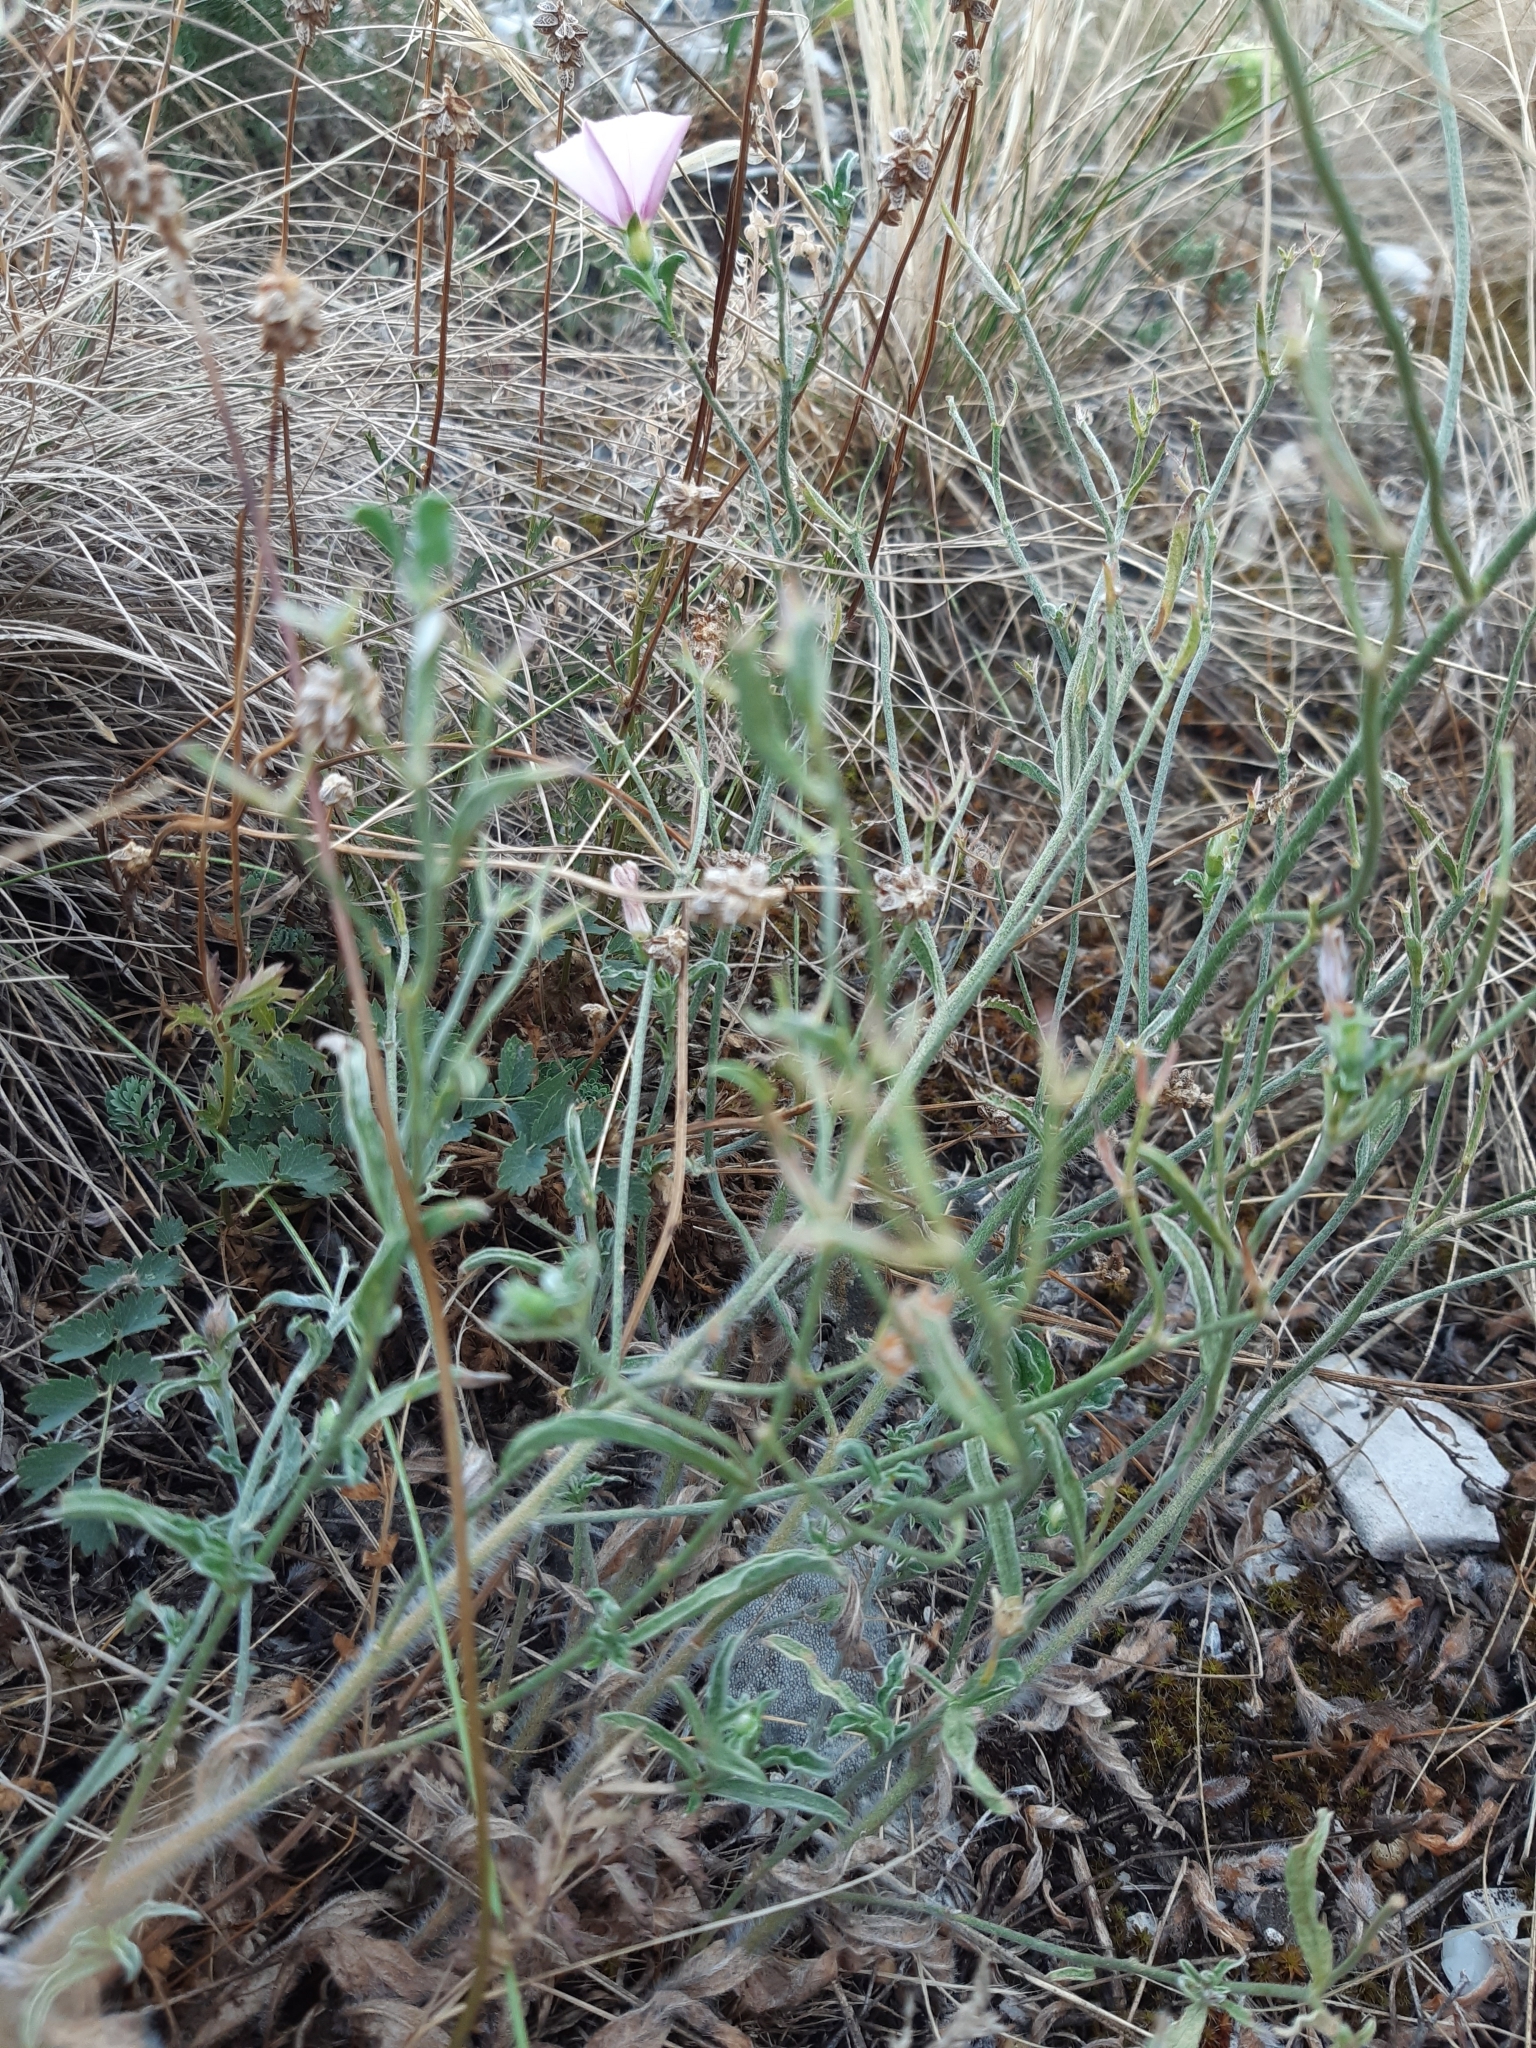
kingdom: Plantae
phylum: Tracheophyta
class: Magnoliopsida
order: Solanales
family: Convolvulaceae
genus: Convolvulus
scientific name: Convolvulus cantabrica
